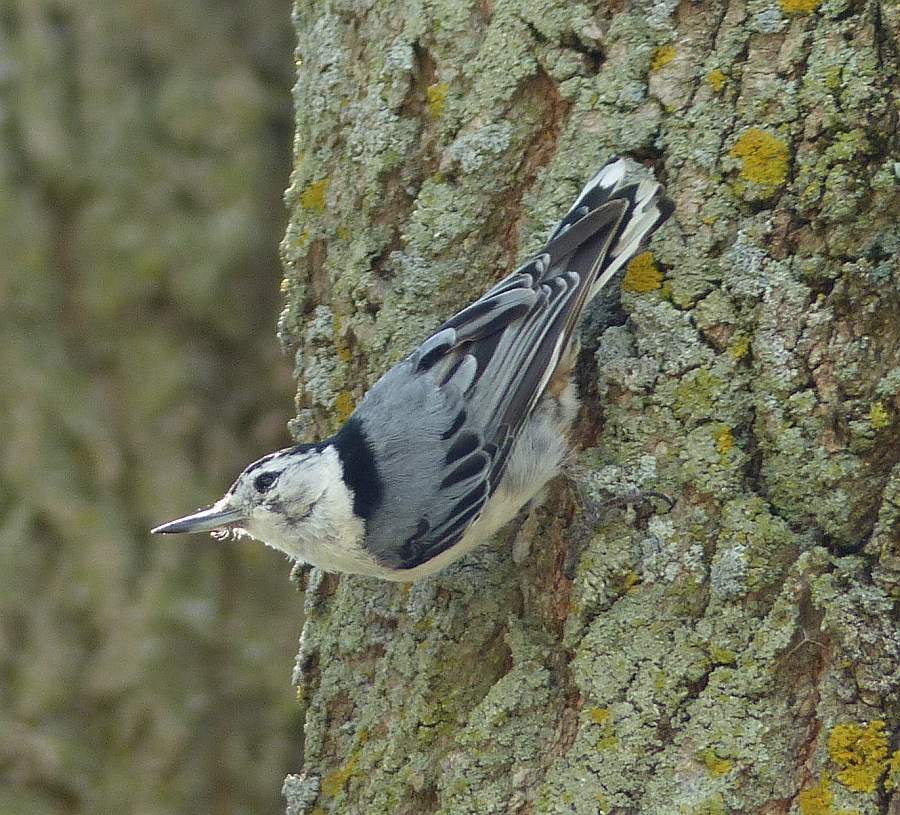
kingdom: Animalia
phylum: Chordata
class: Aves
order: Passeriformes
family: Sittidae
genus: Sitta
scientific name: Sitta carolinensis
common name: White-breasted nuthatch
